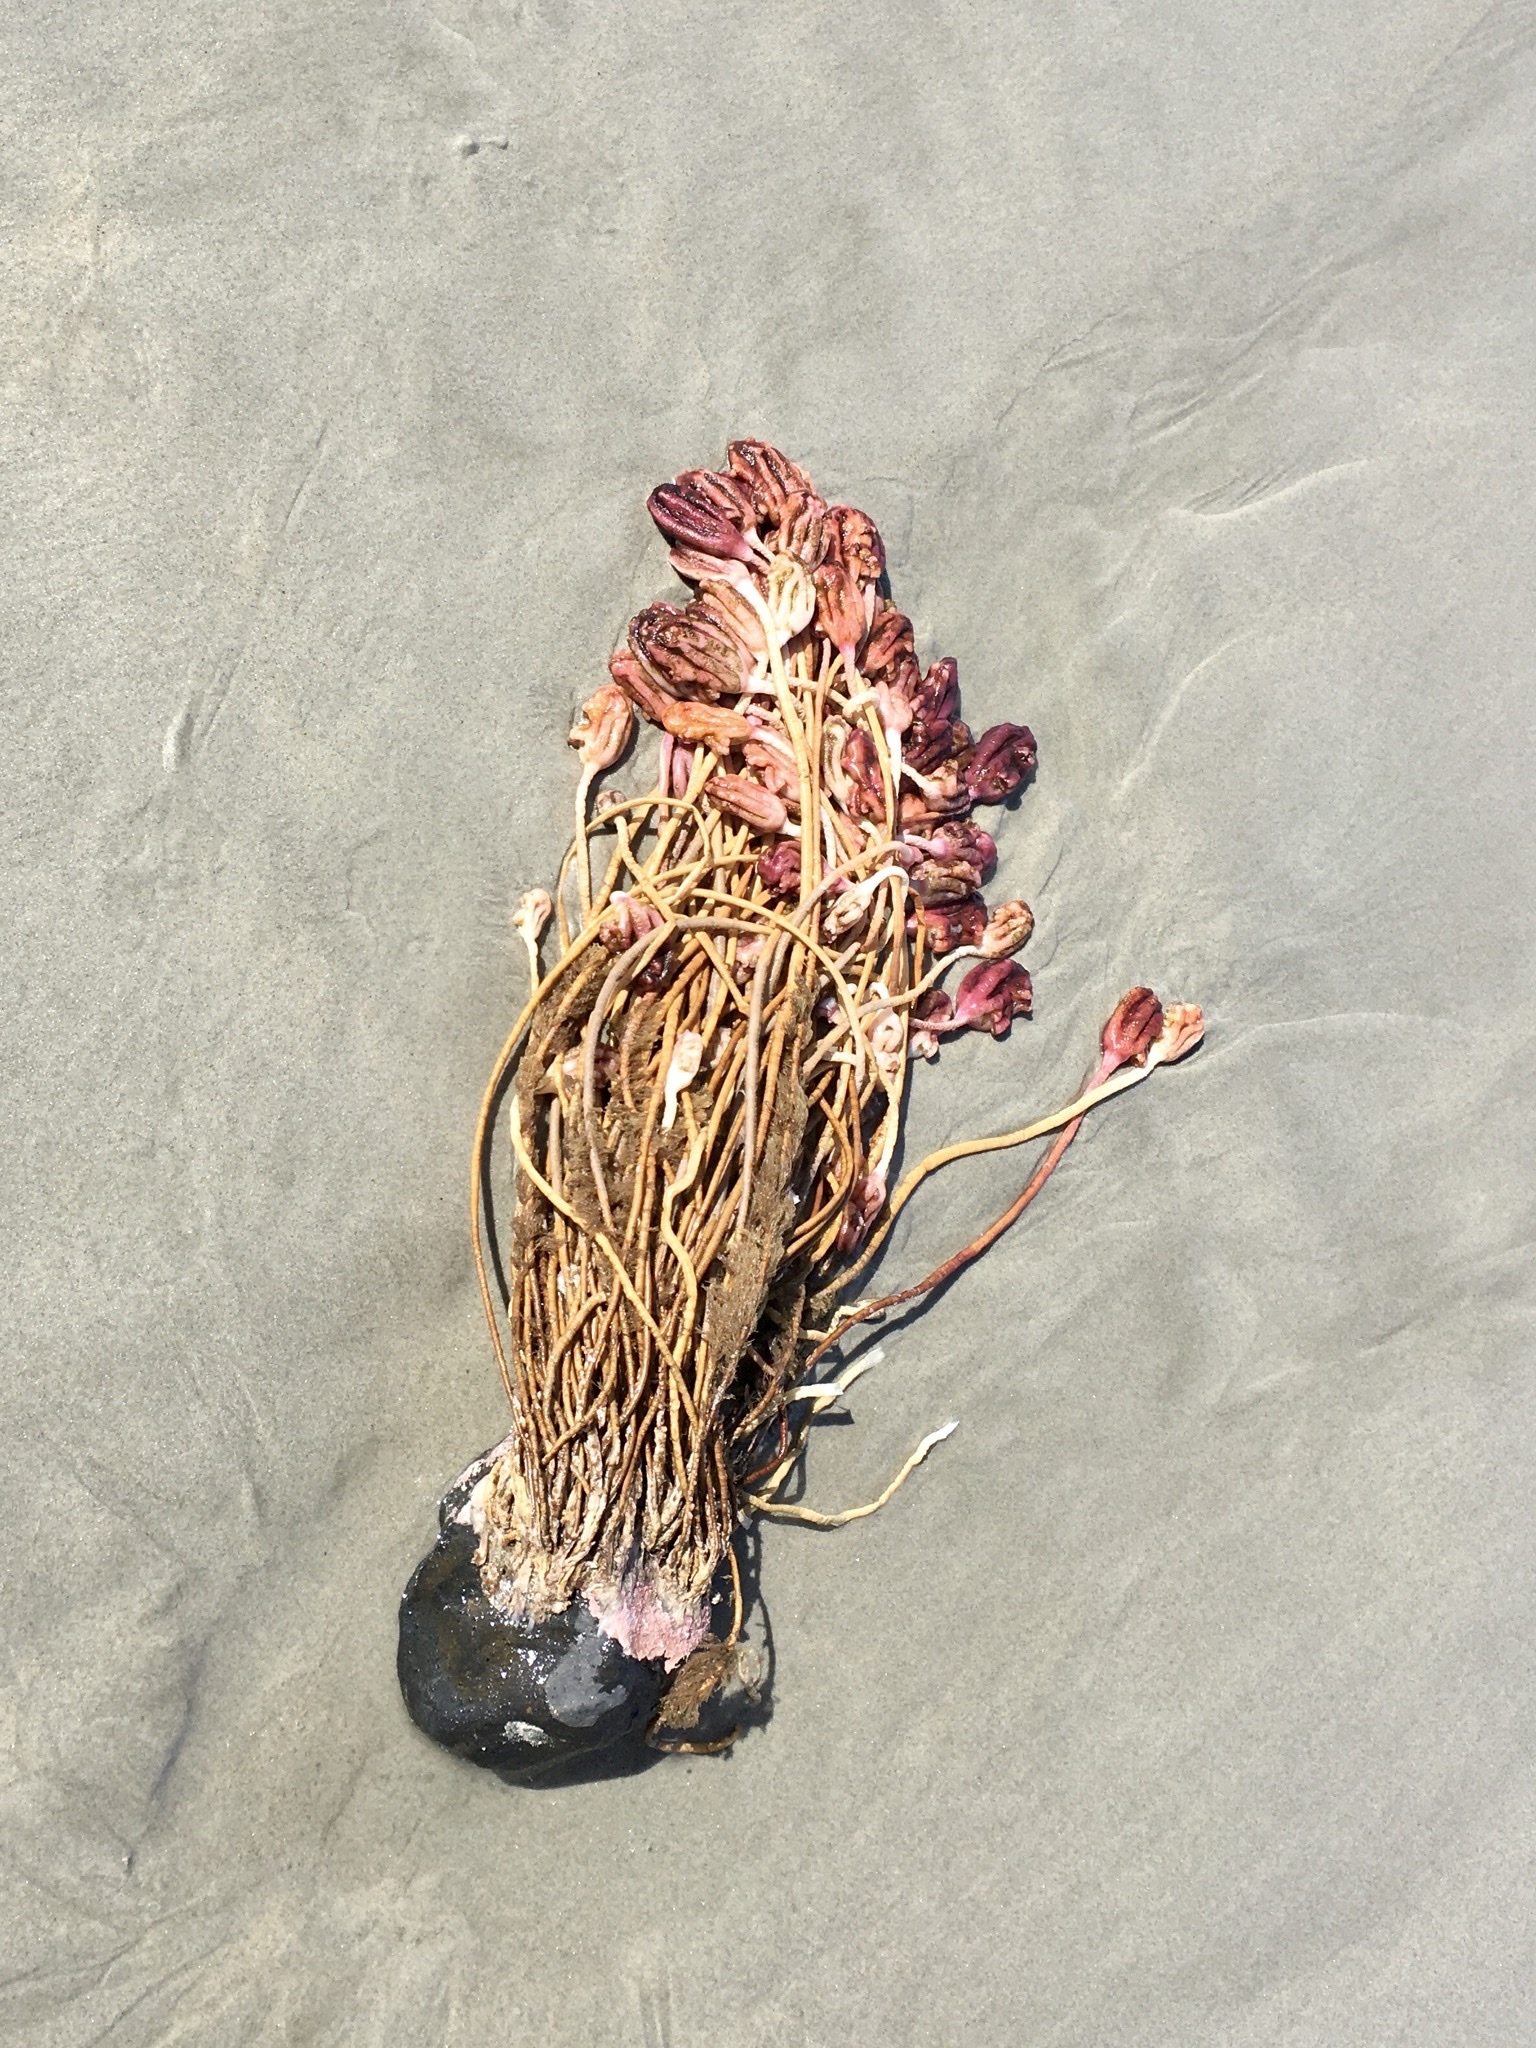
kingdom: Animalia
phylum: Chordata
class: Ascidiacea
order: Stolidobranchia
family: Pyuridae
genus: Pyura
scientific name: Pyura pachydermatina
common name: Sea tulip
